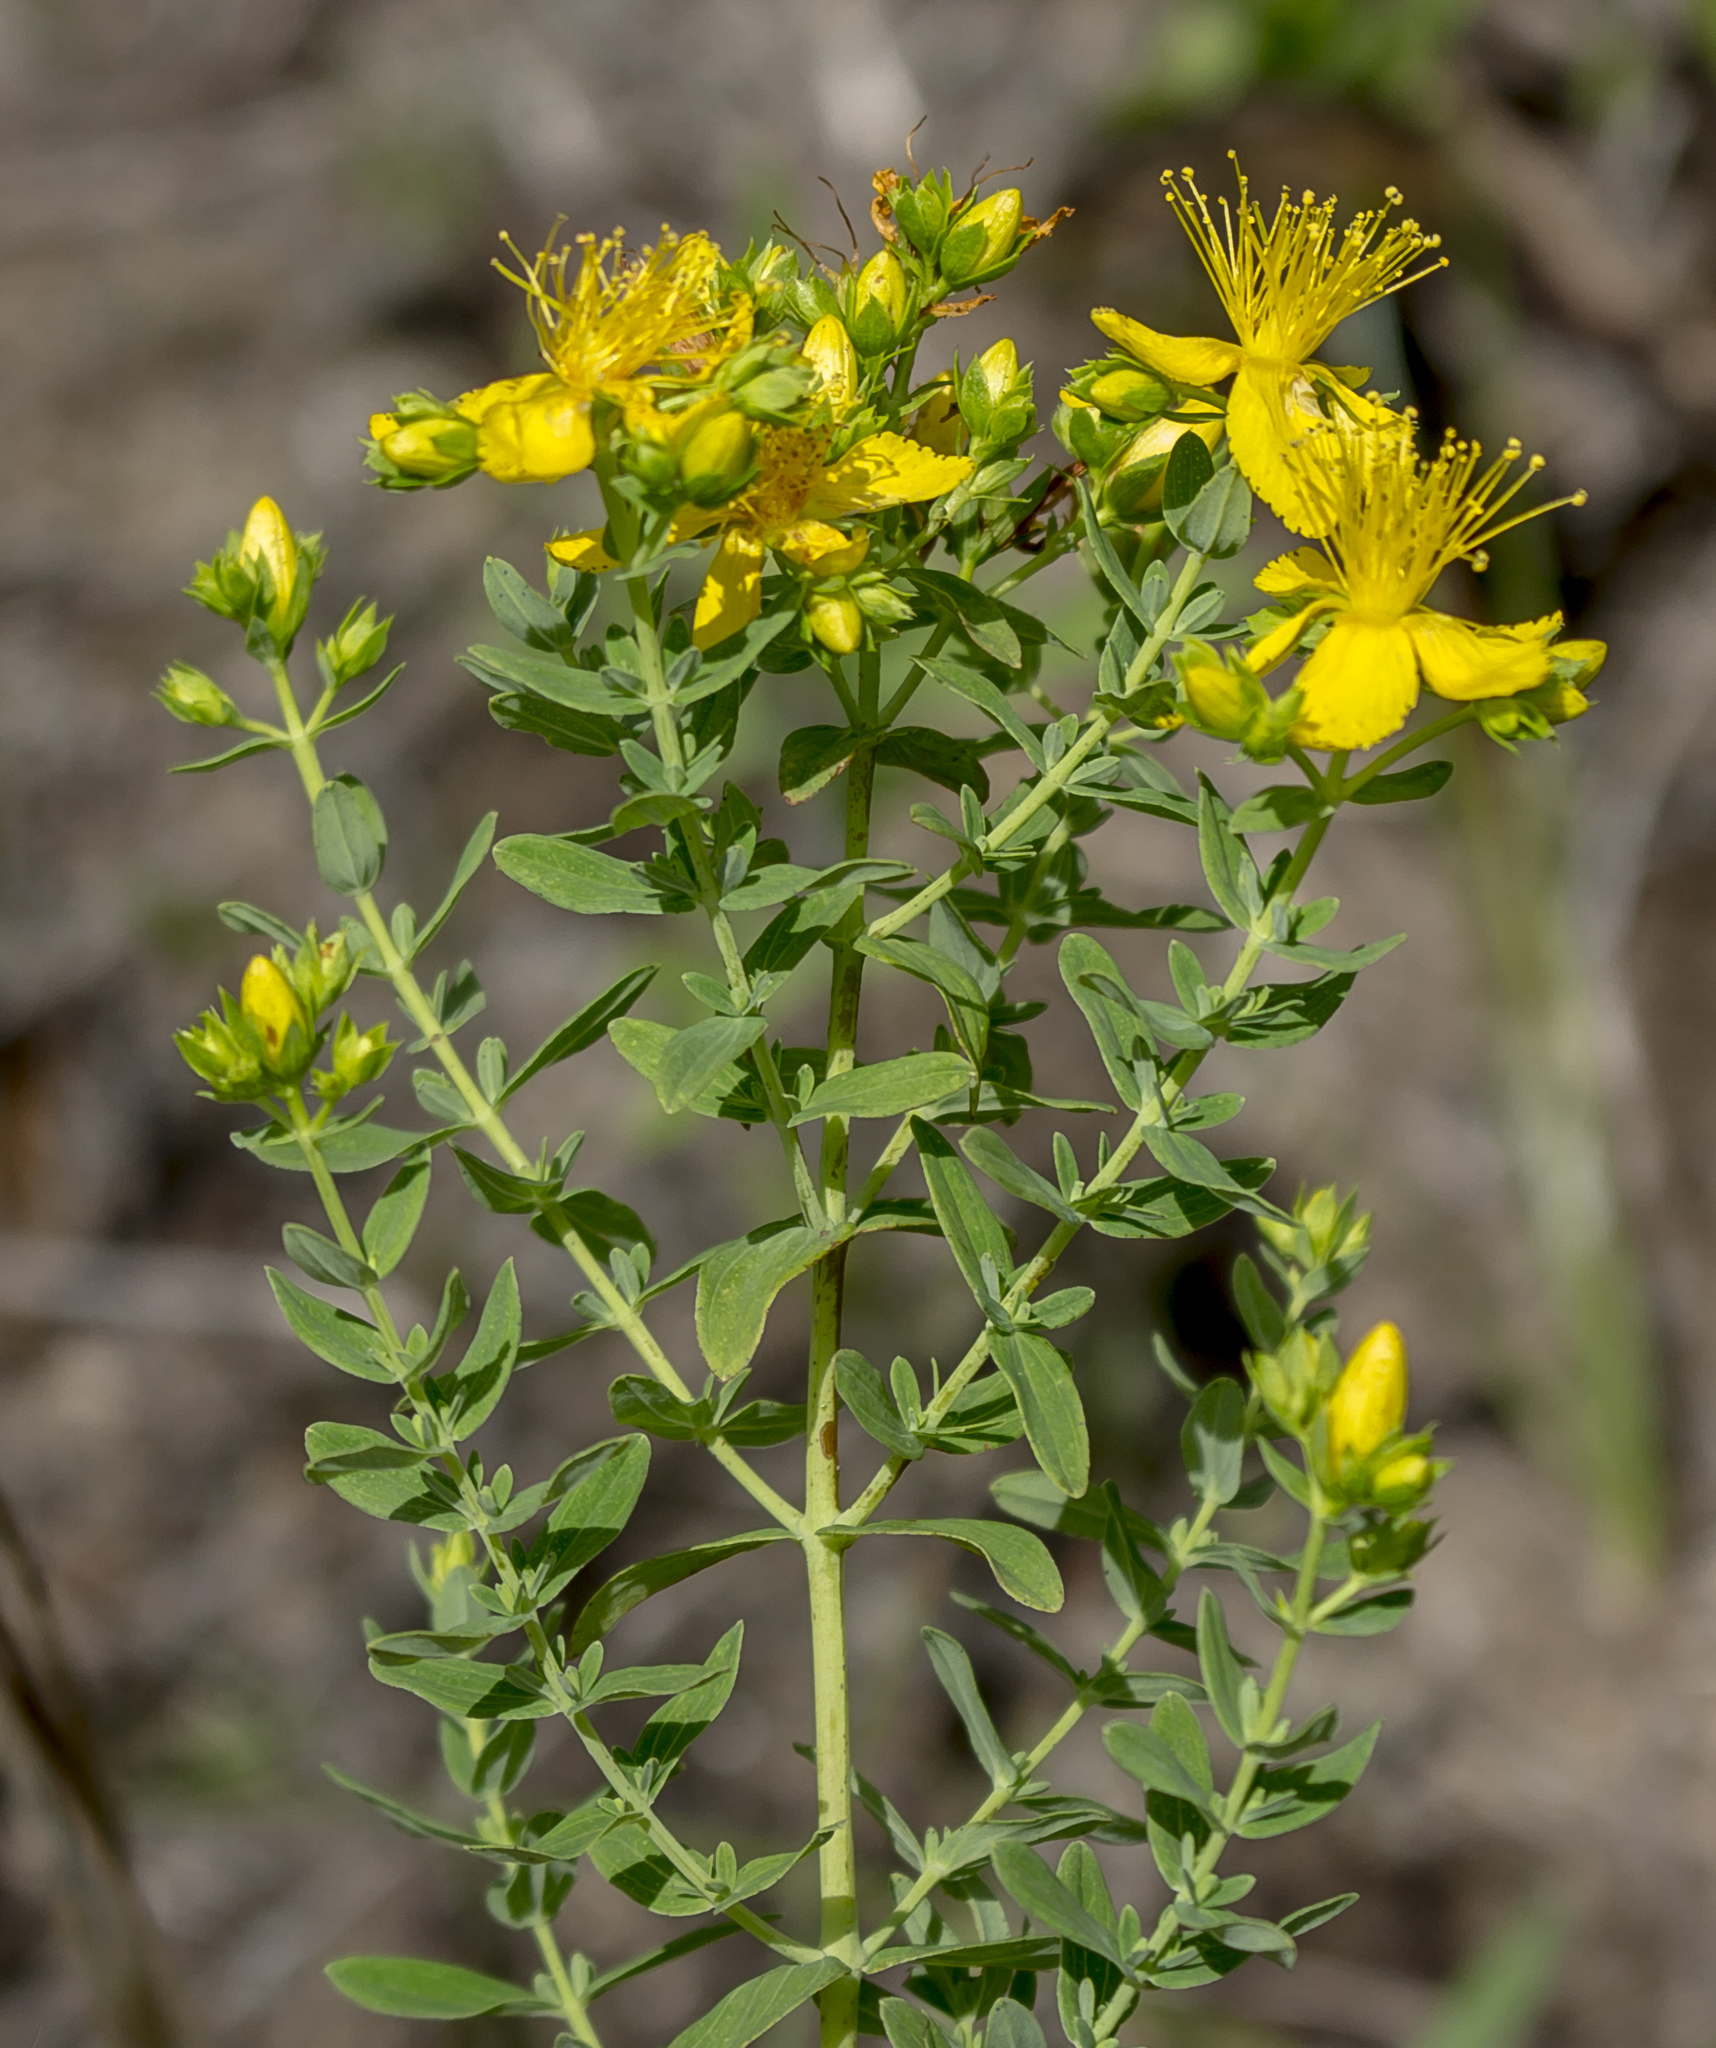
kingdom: Plantae
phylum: Tracheophyta
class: Magnoliopsida
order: Malpighiales
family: Hypericaceae
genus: Hypericum
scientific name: Hypericum perforatum
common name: Common st. johnswort
